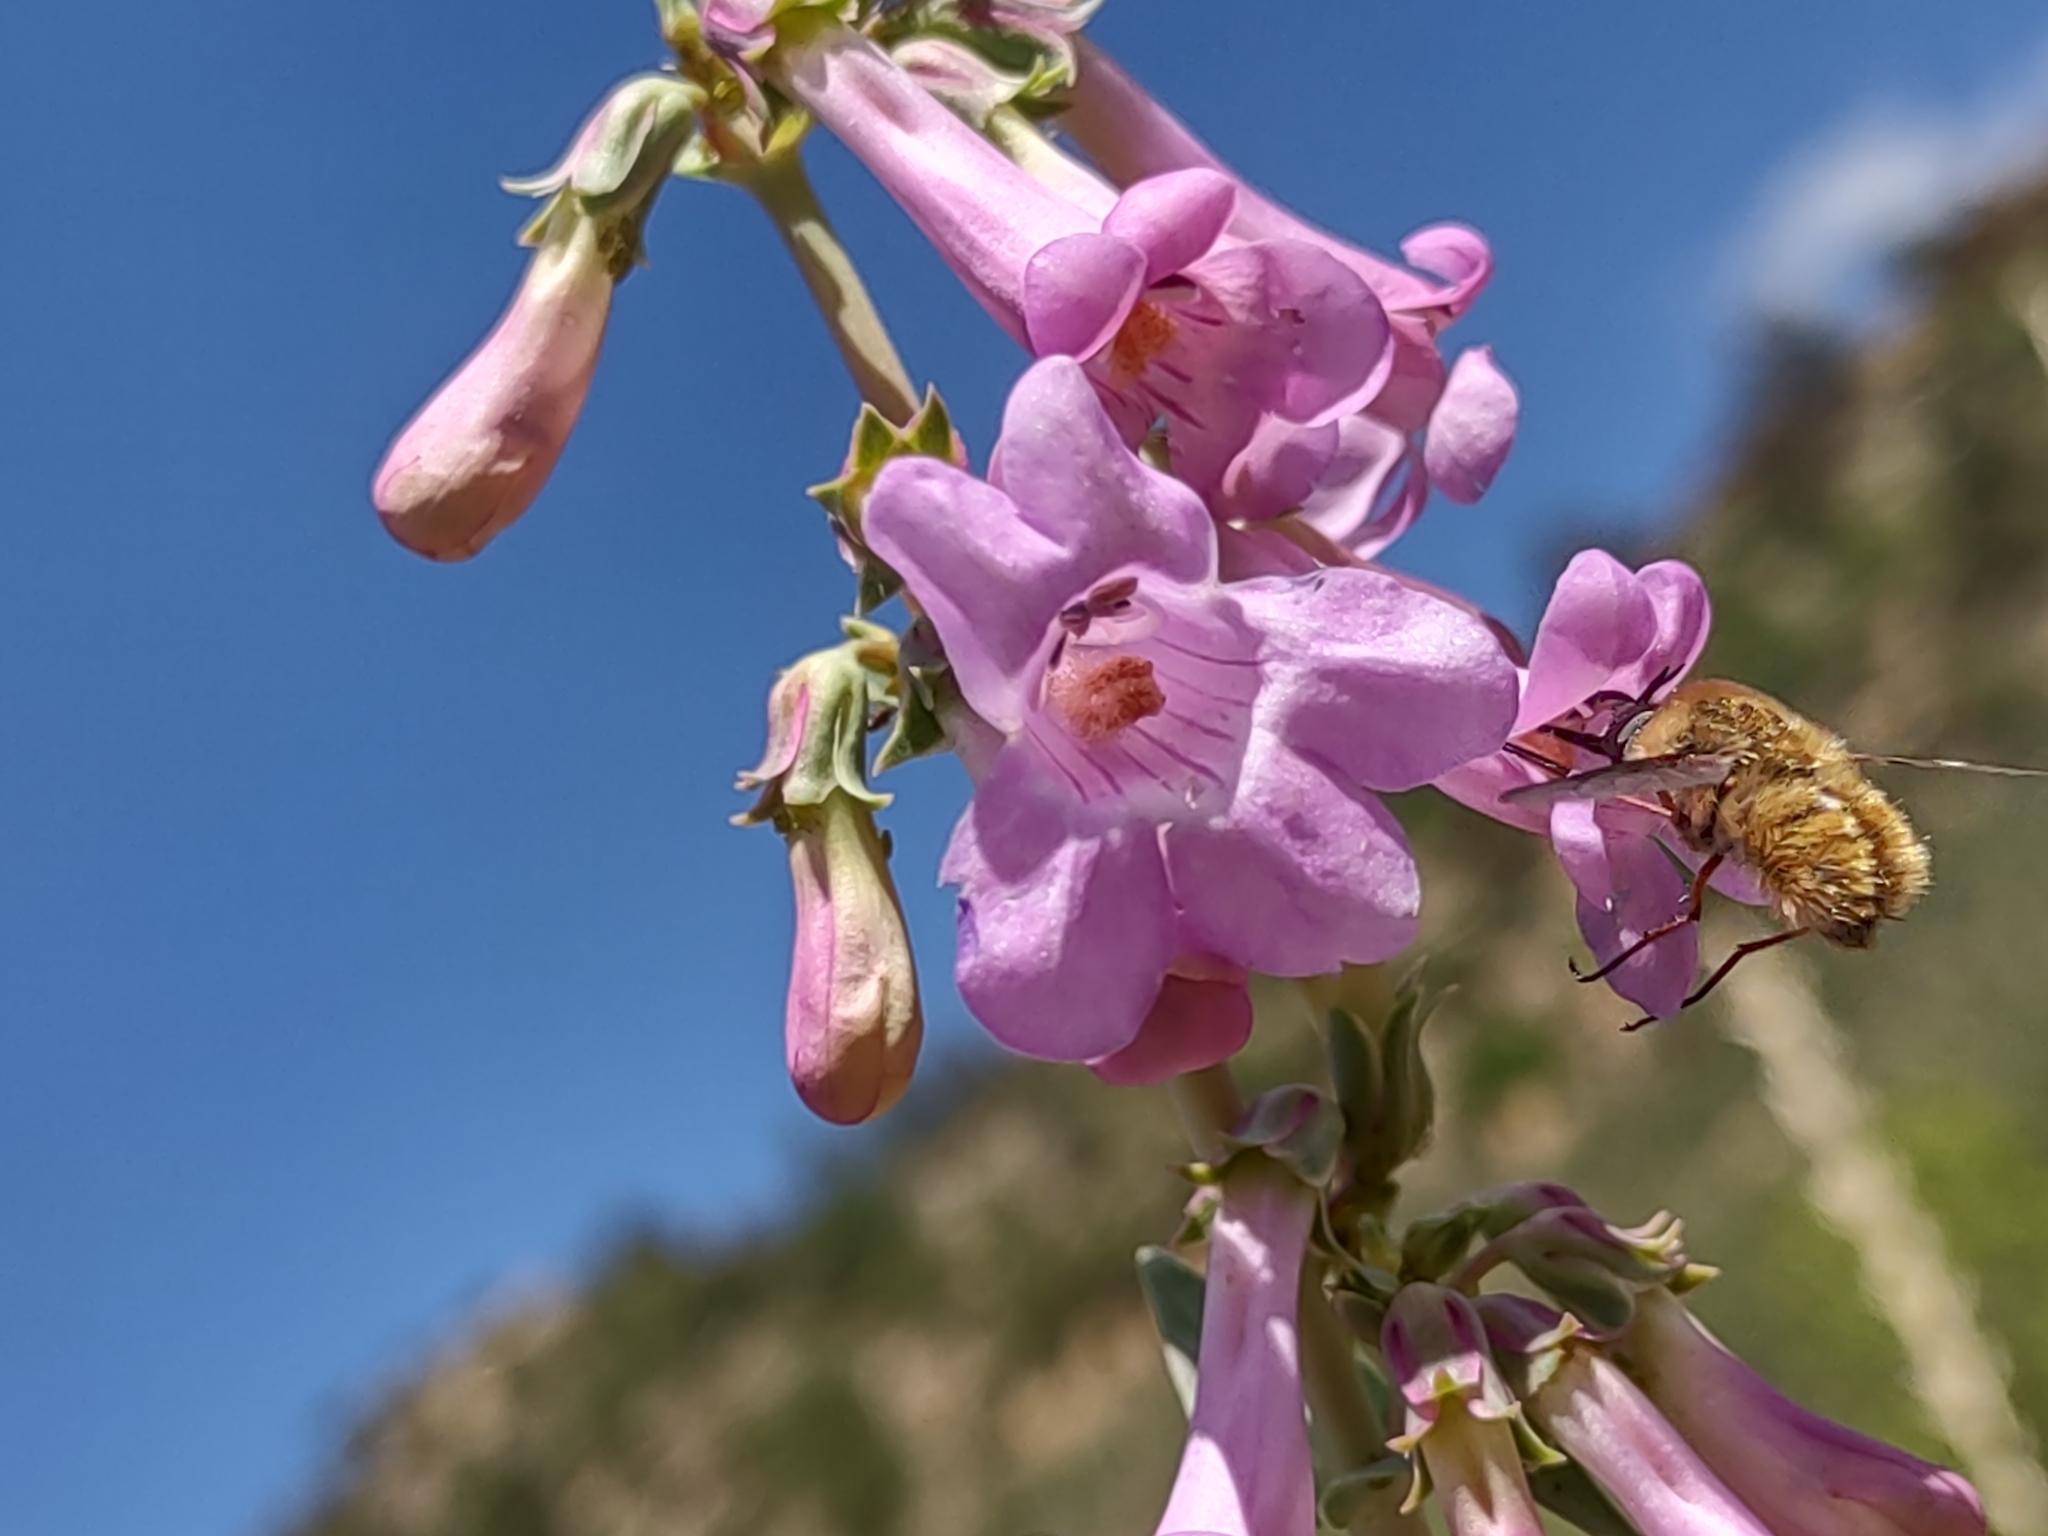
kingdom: Plantae
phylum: Tracheophyta
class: Magnoliopsida
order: Lamiales
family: Plantaginaceae
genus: Penstemon
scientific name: Penstemon secundiflorus
